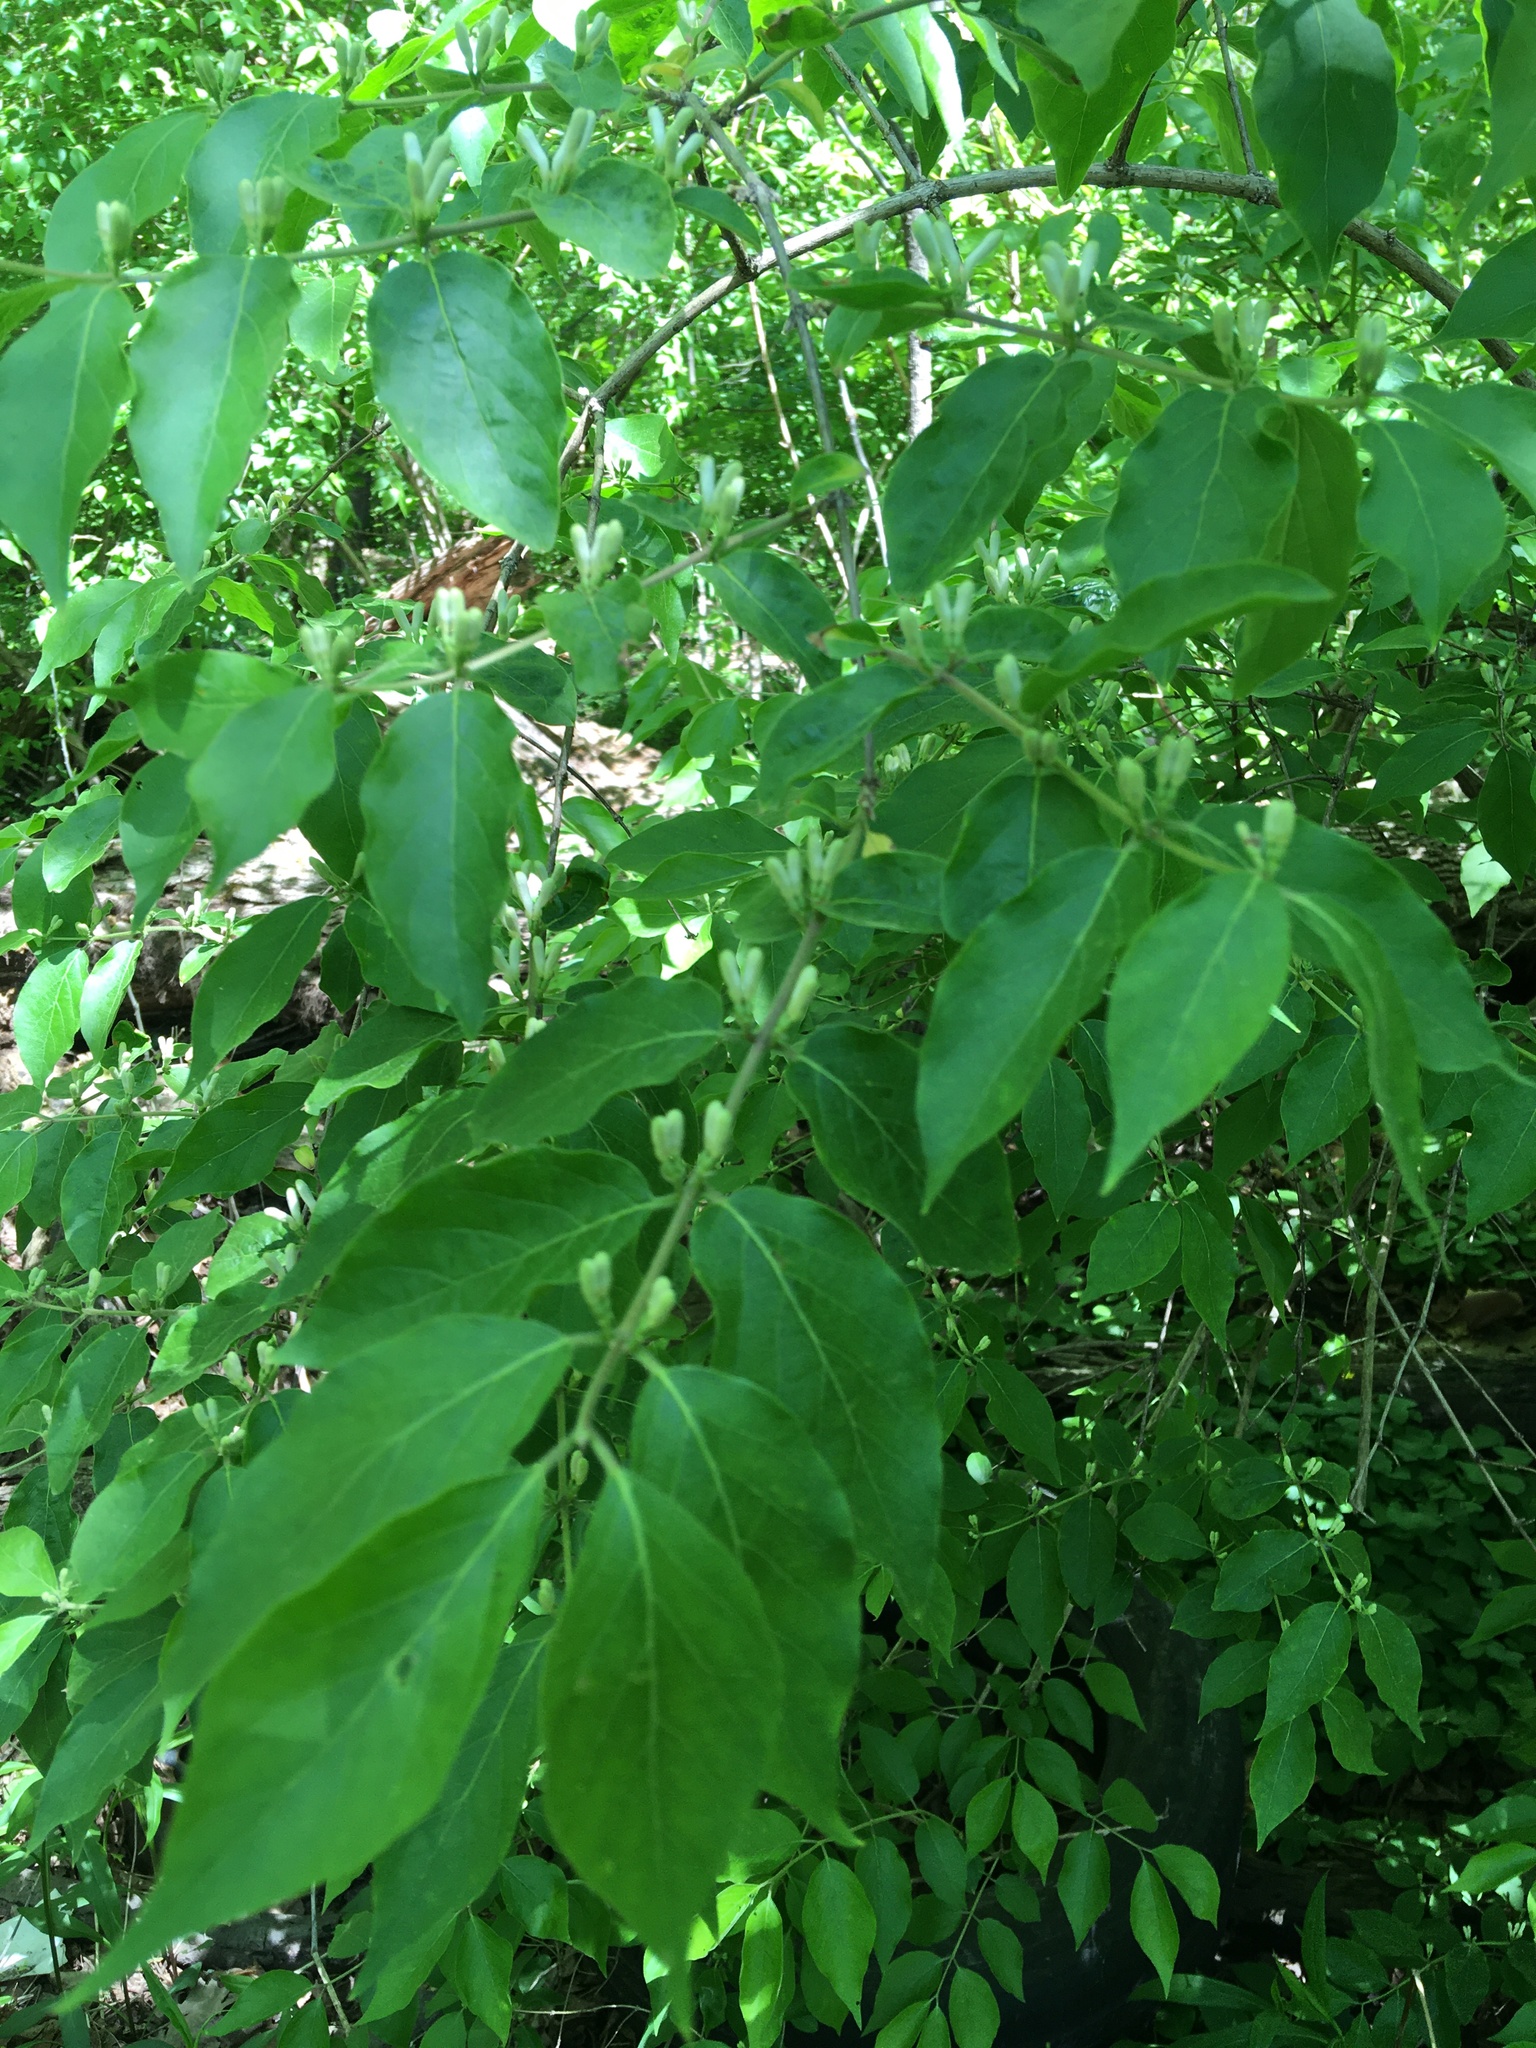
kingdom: Plantae
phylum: Tracheophyta
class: Magnoliopsida
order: Dipsacales
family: Caprifoliaceae
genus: Lonicera
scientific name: Lonicera maackii
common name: Amur honeysuckle
